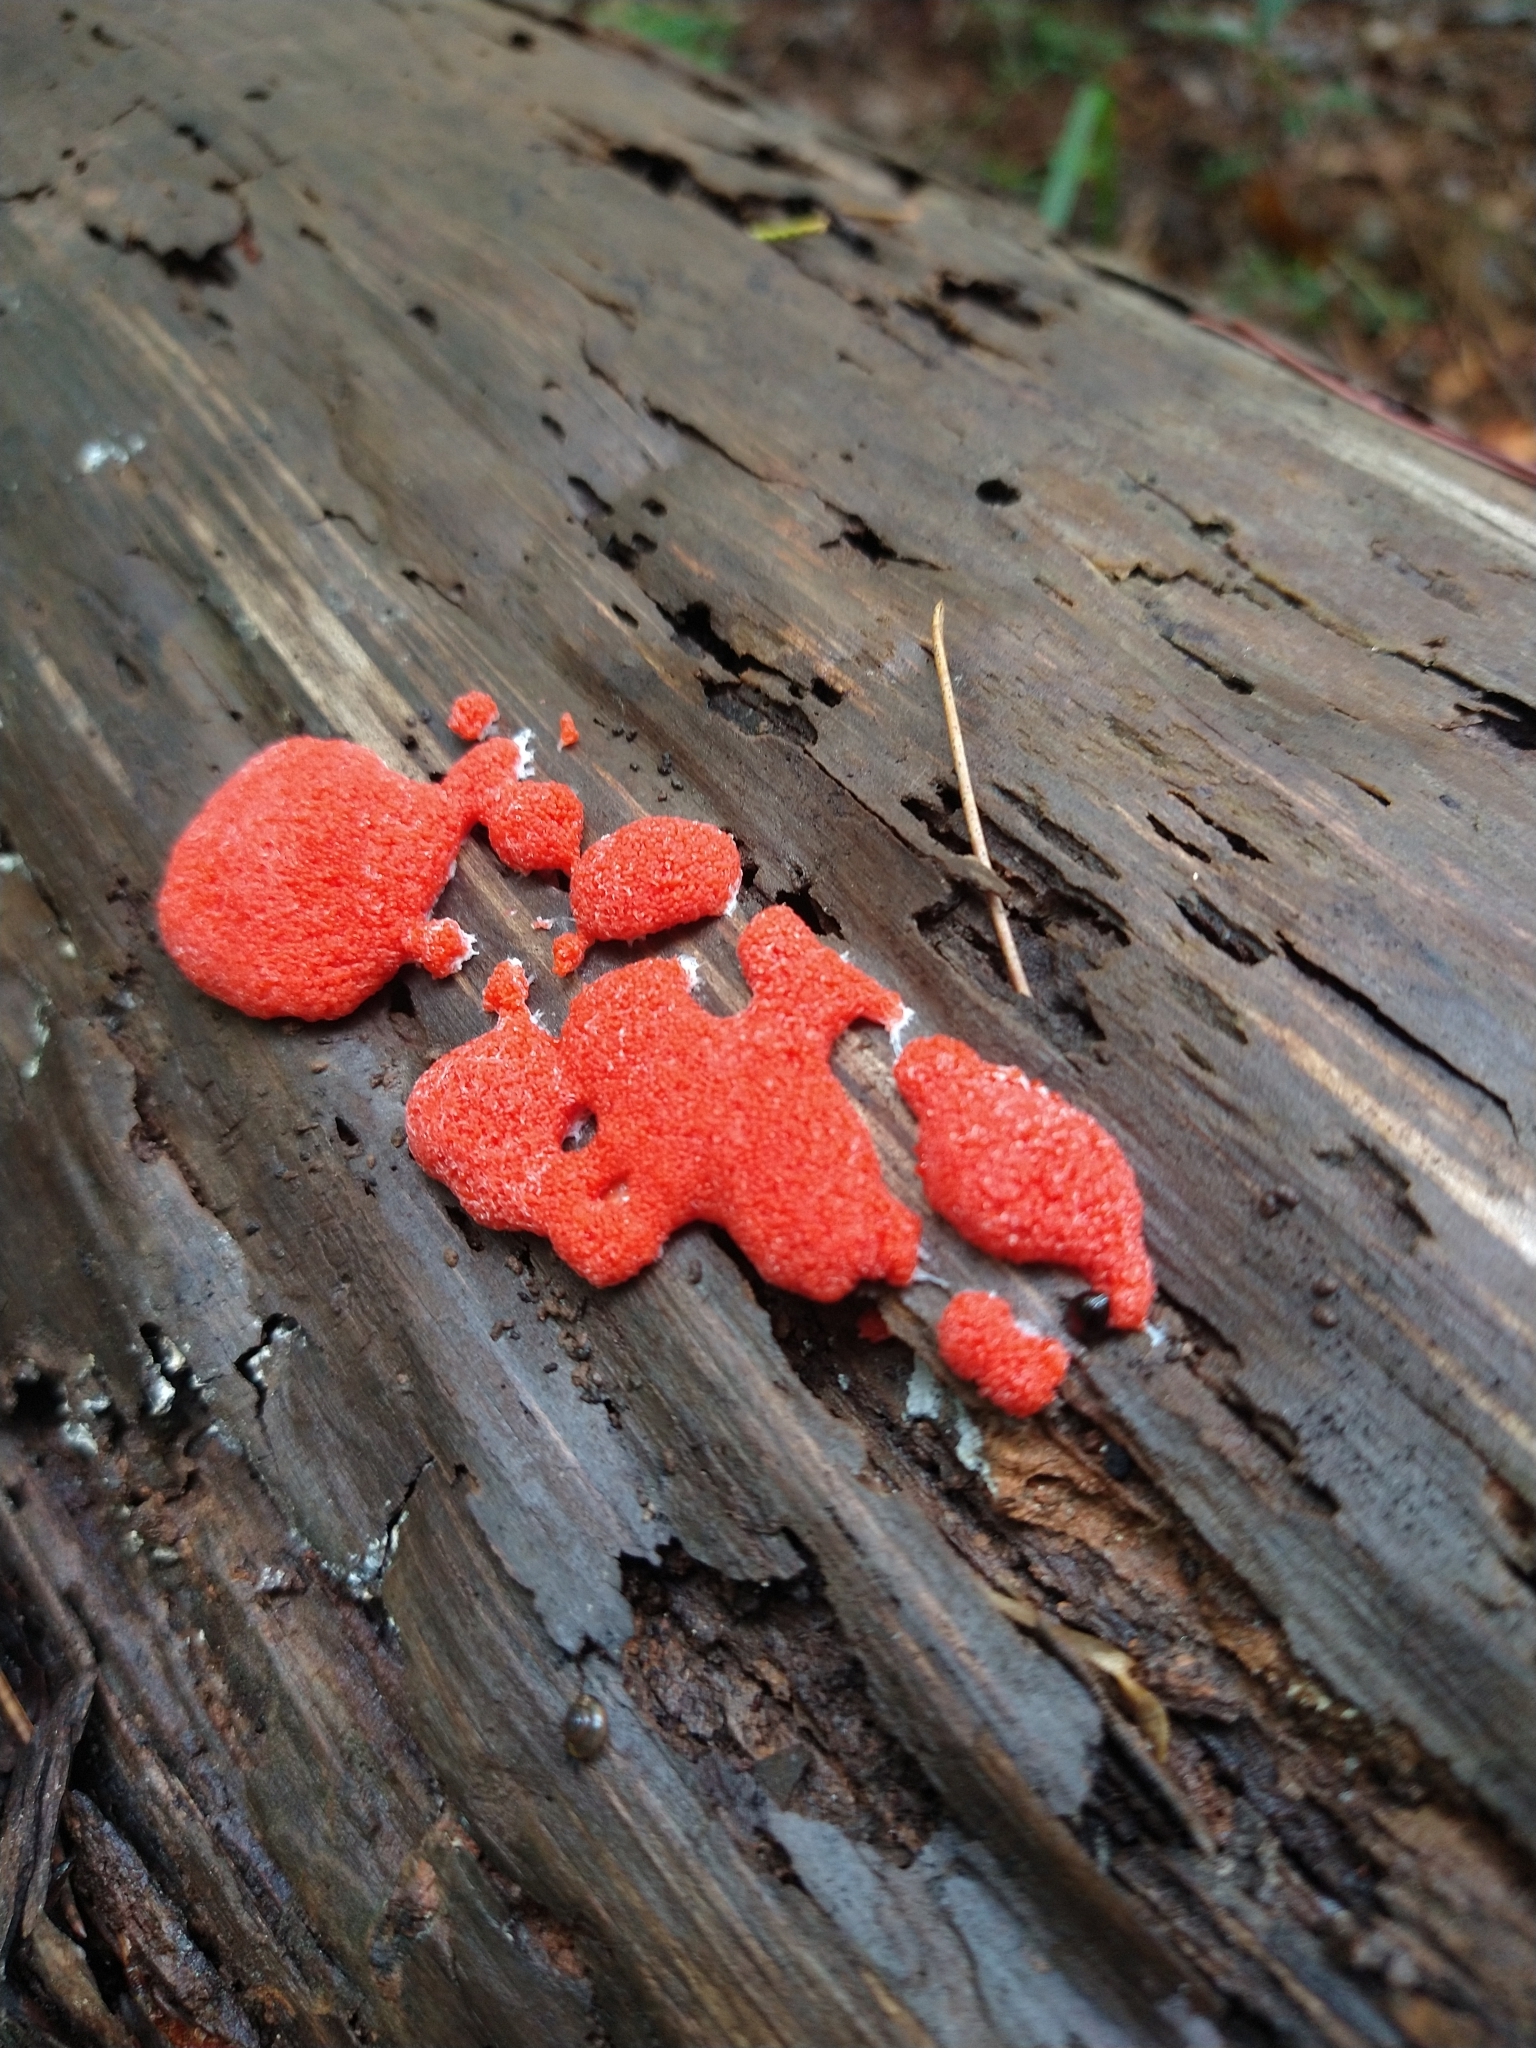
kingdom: Protozoa
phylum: Mycetozoa
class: Myxomycetes
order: Cribrariales
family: Tubiferaceae
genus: Tubifera
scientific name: Tubifera ferruginosa
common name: Red raspberry slime mold
